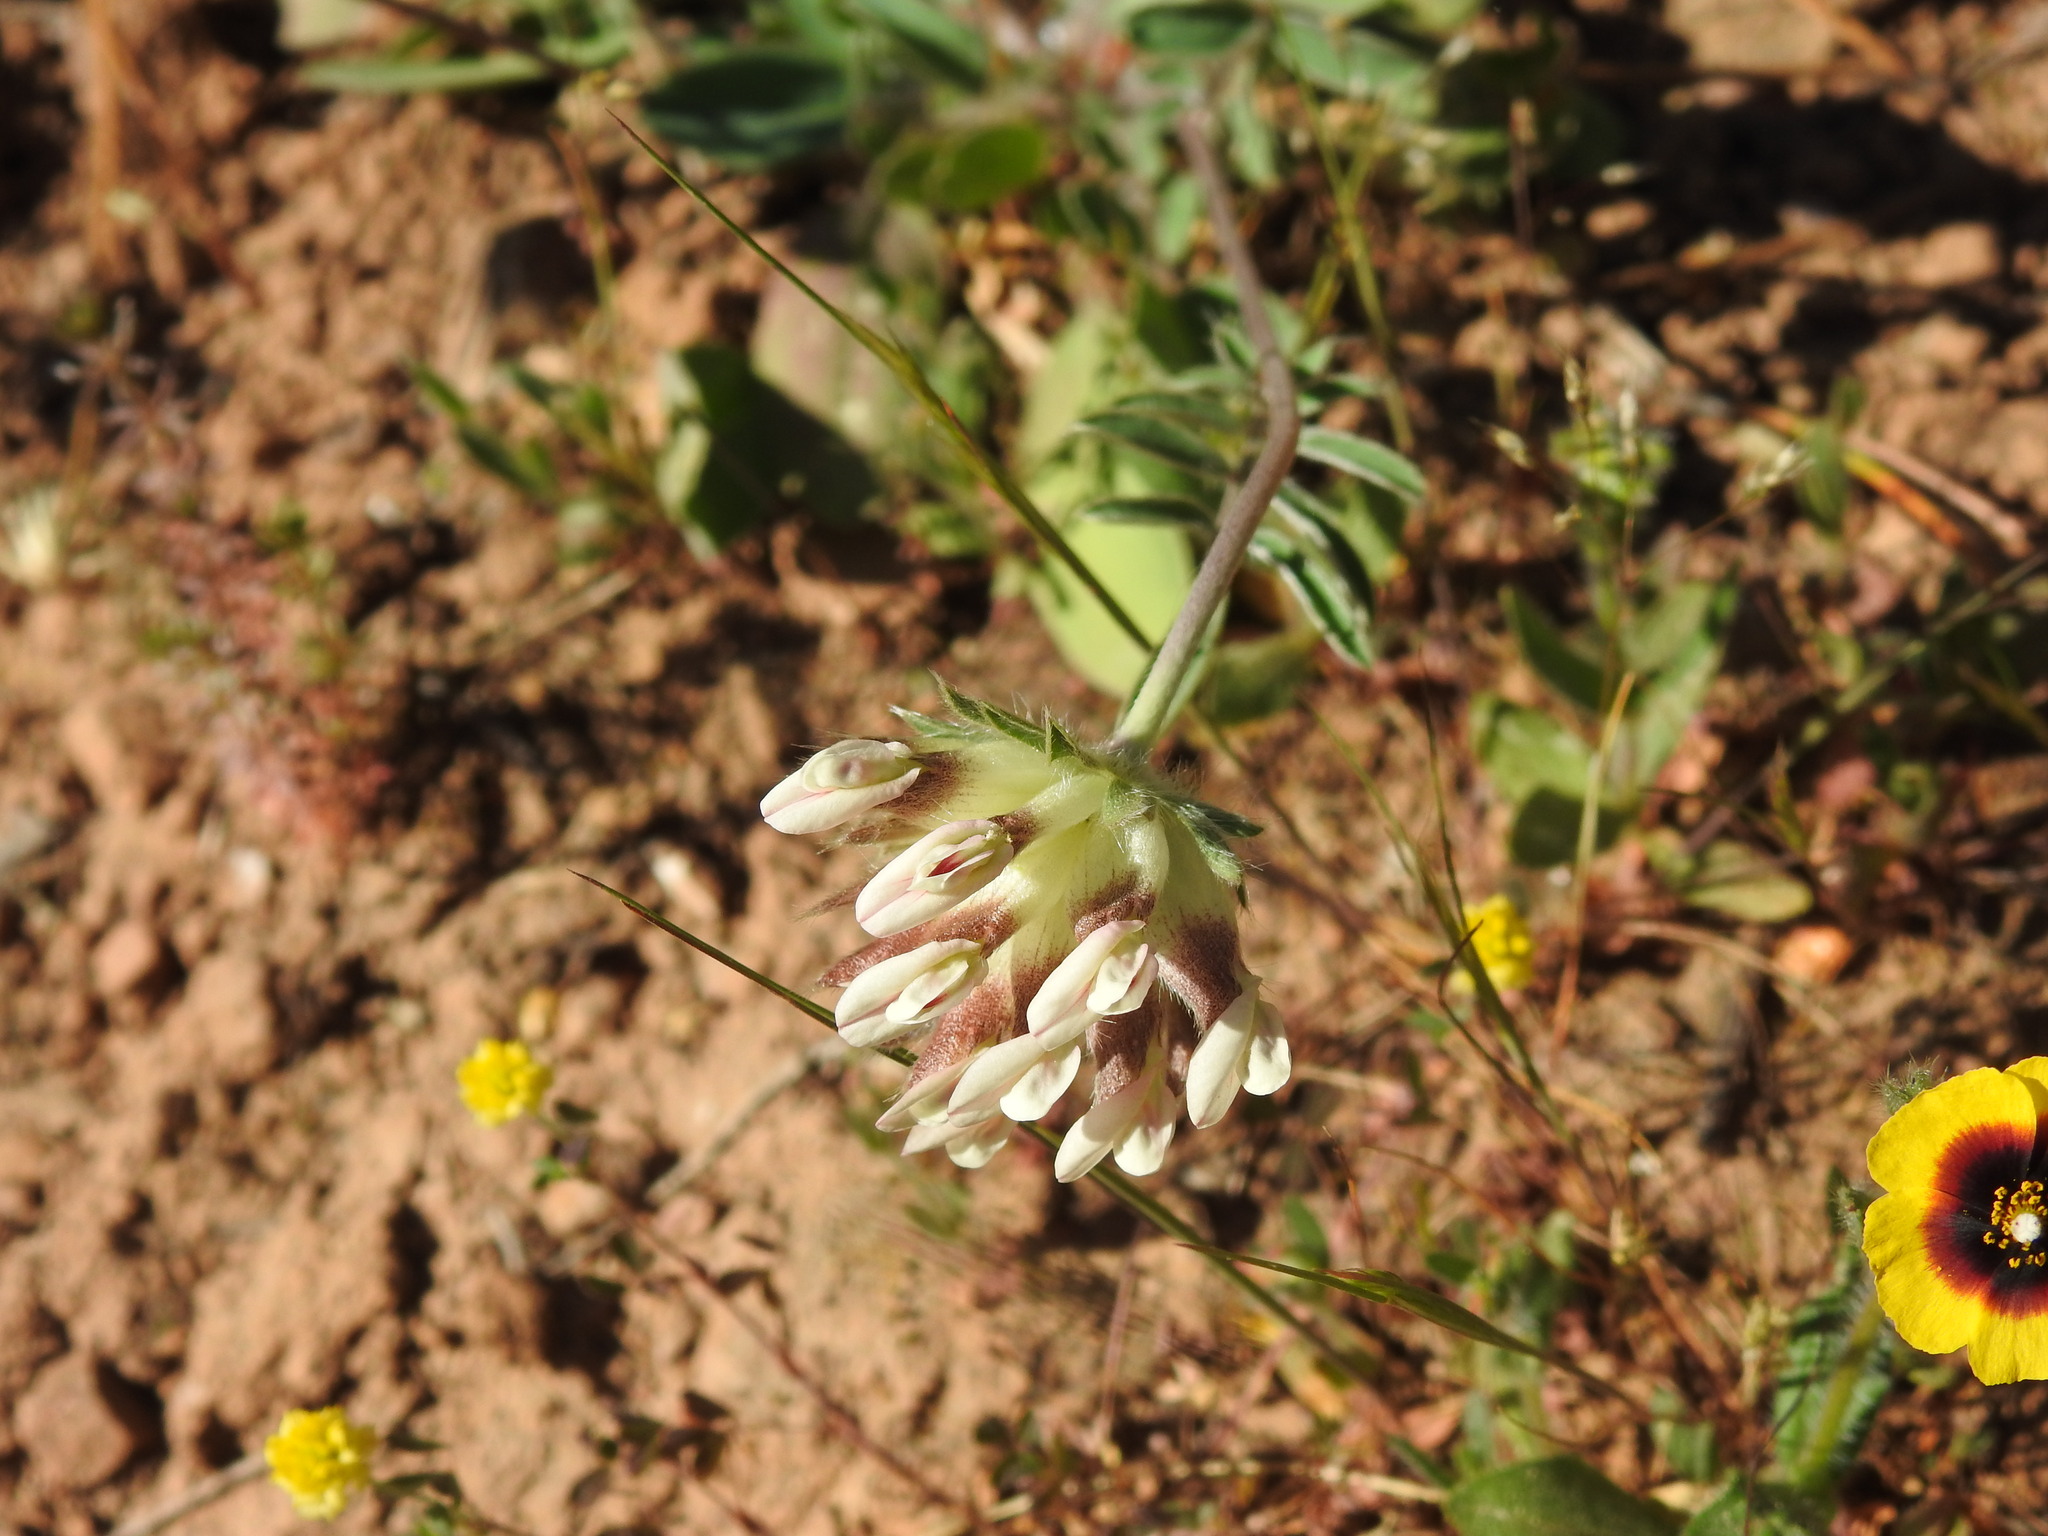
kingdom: Plantae
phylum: Tracheophyta
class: Magnoliopsida
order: Fabales
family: Fabaceae
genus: Anthyllis
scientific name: Anthyllis vulneraria
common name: Kidney vetch
